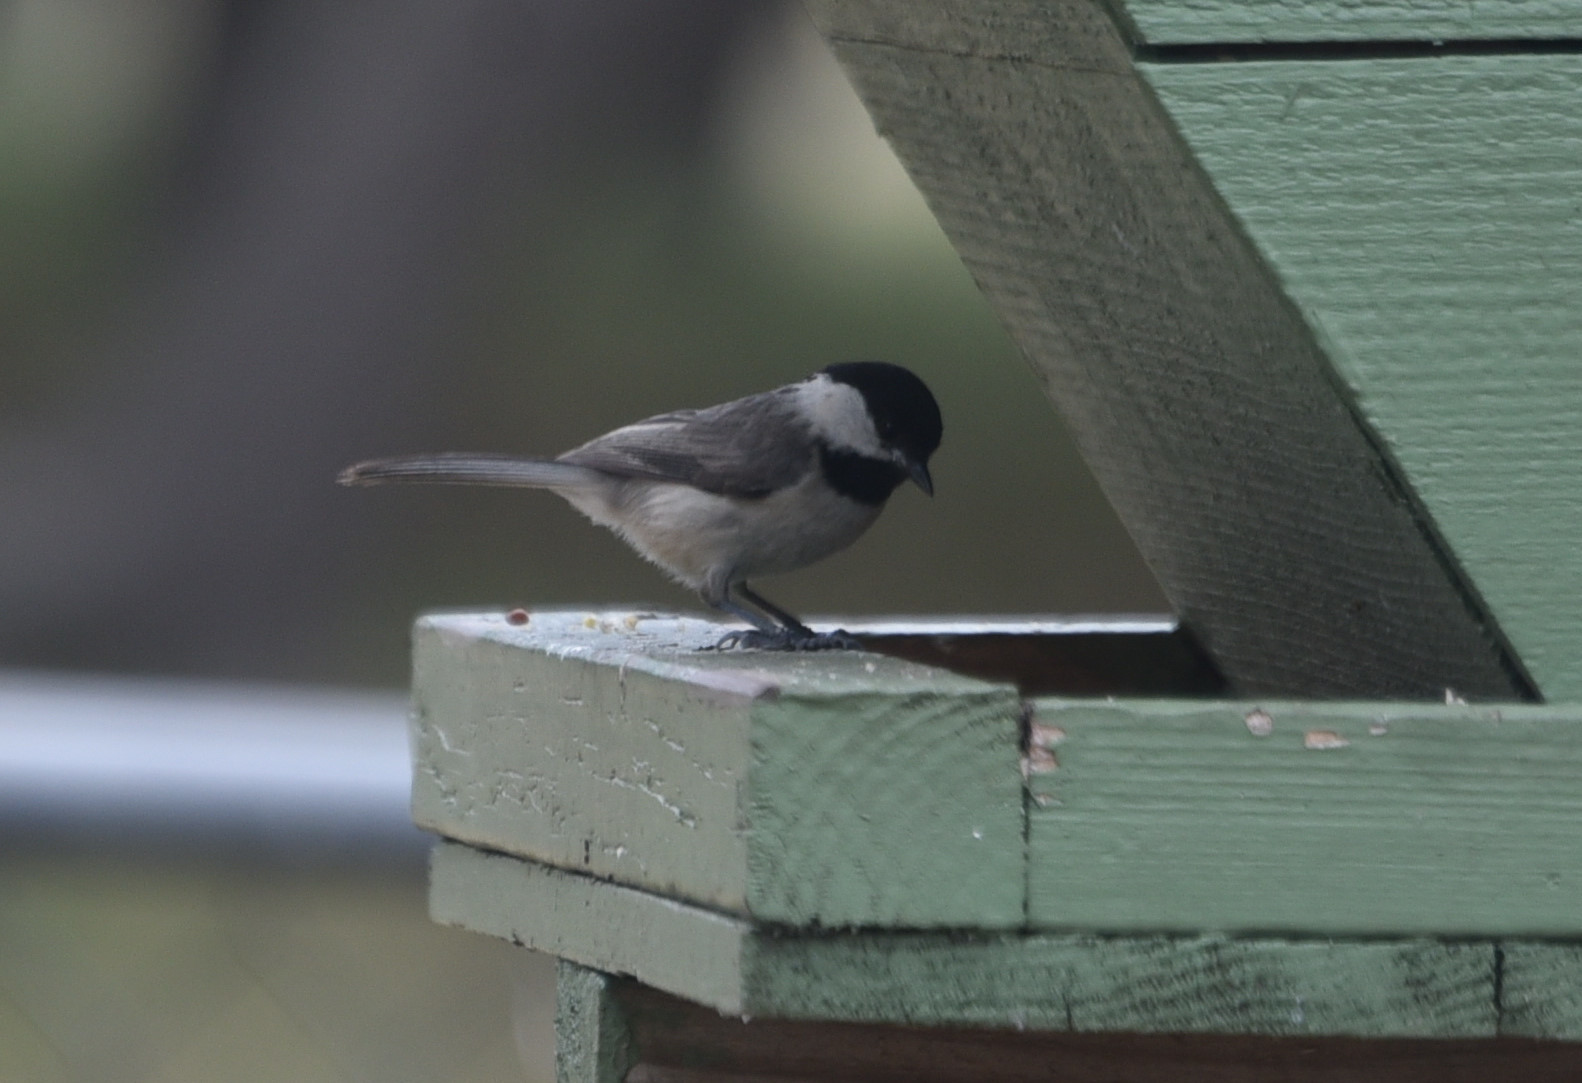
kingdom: Animalia
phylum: Chordata
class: Aves
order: Passeriformes
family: Paridae
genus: Poecile
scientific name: Poecile carolinensis
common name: Carolina chickadee
